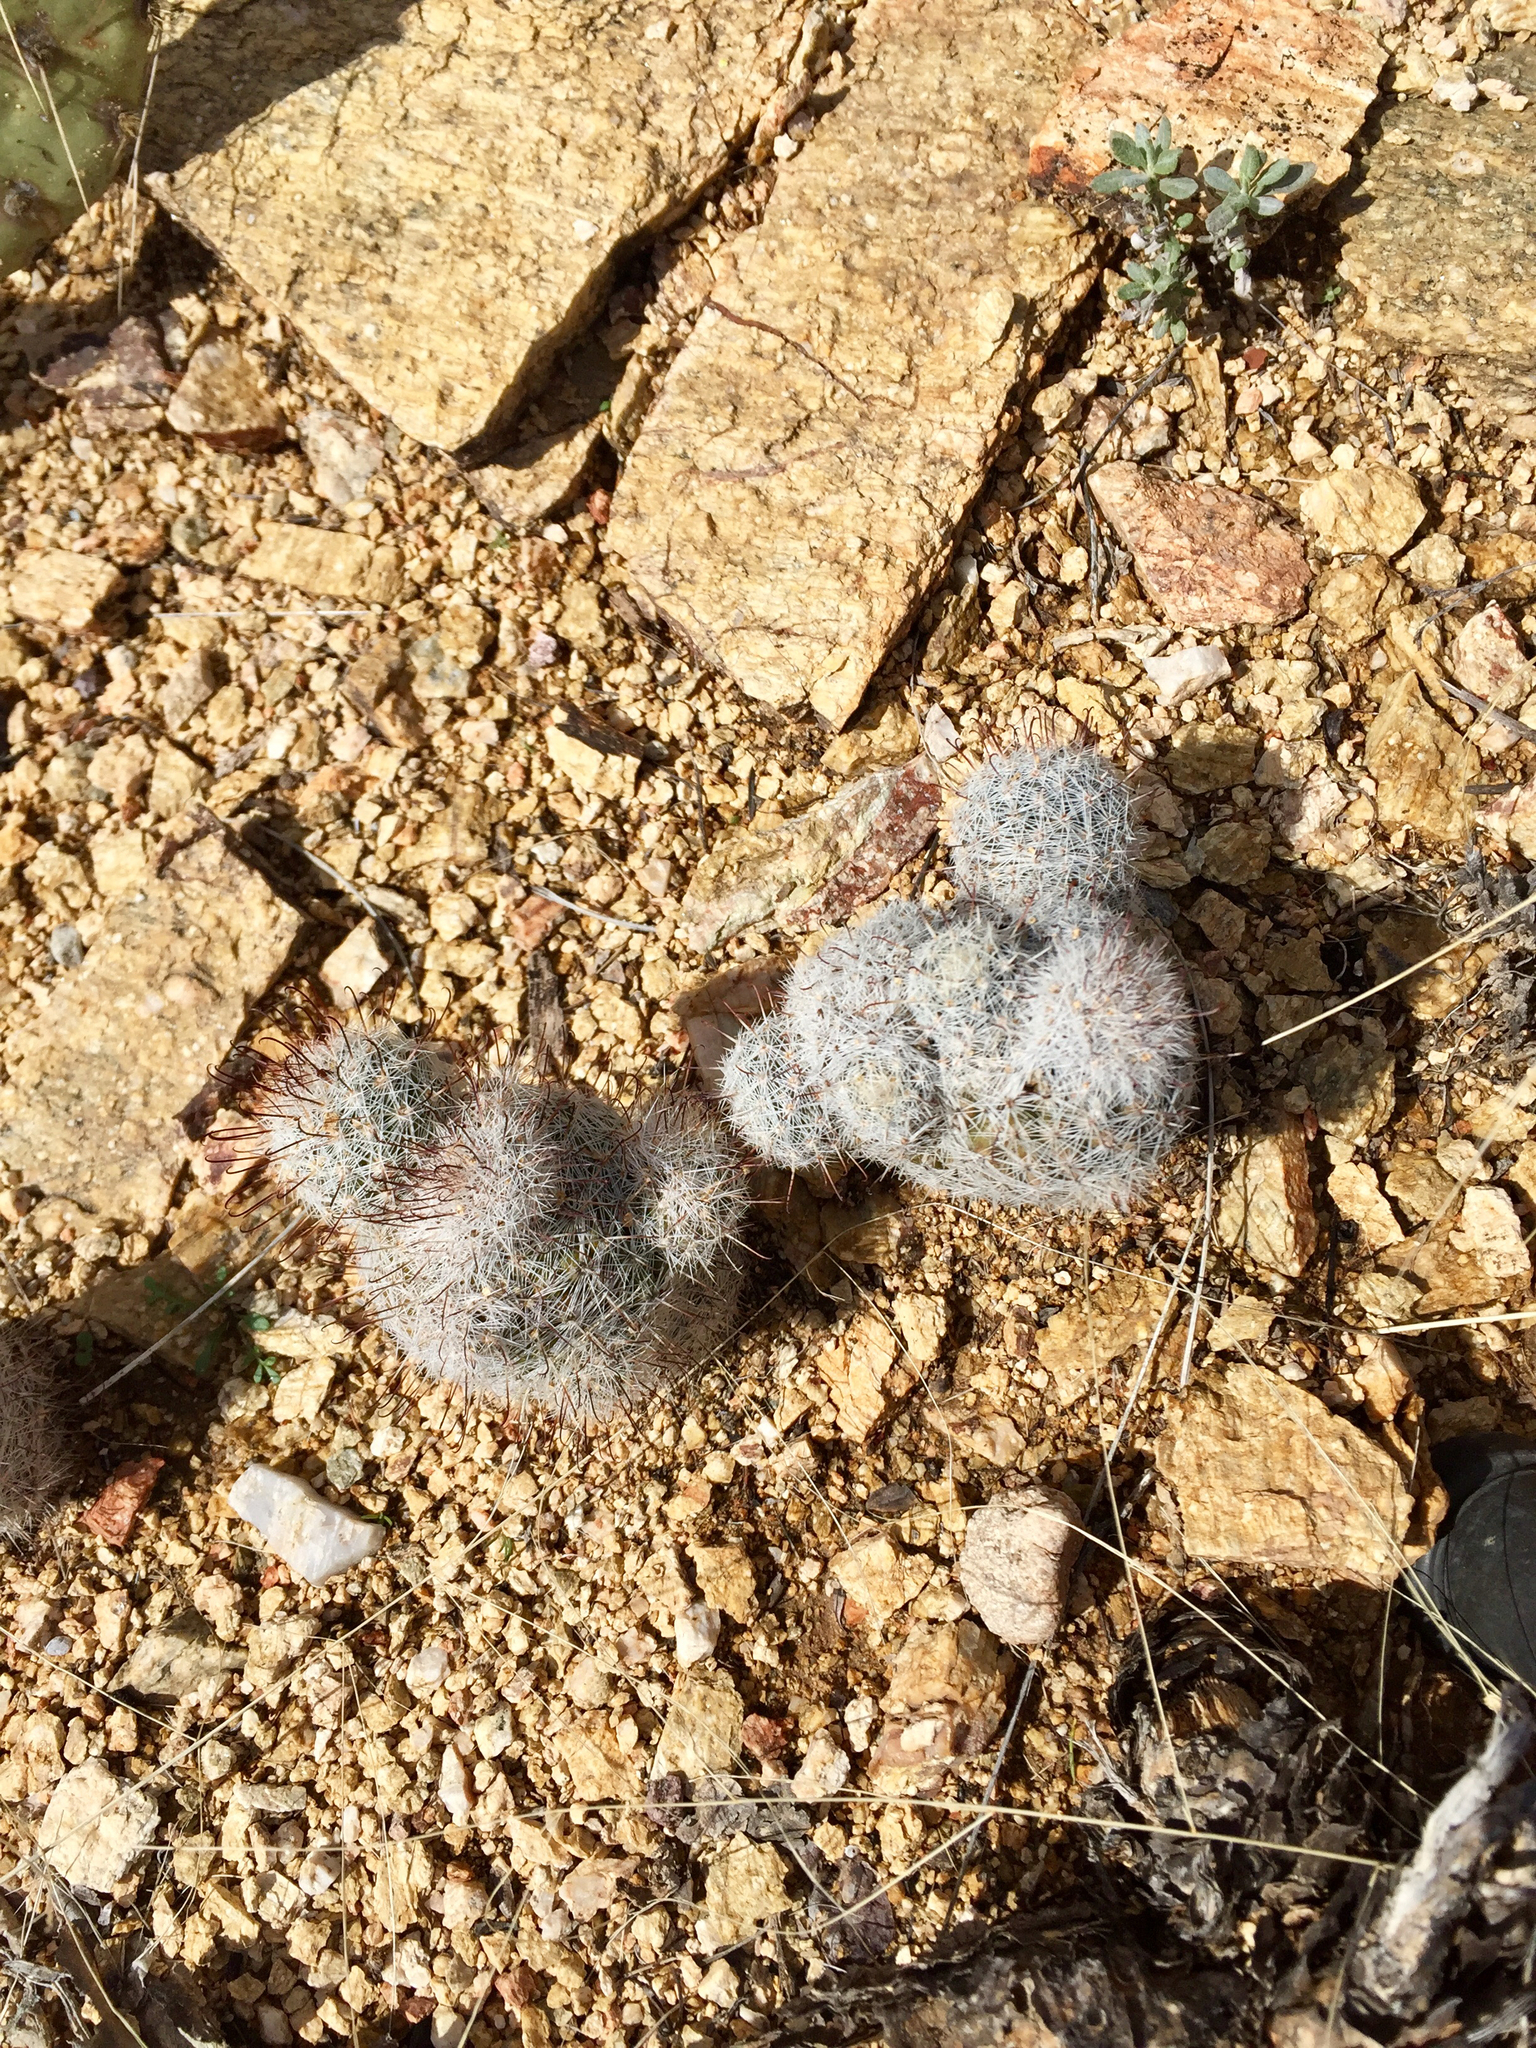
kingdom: Plantae
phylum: Tracheophyta
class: Magnoliopsida
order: Caryophyllales
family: Cactaceae
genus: Cochemiea
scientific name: Cochemiea grahamii
